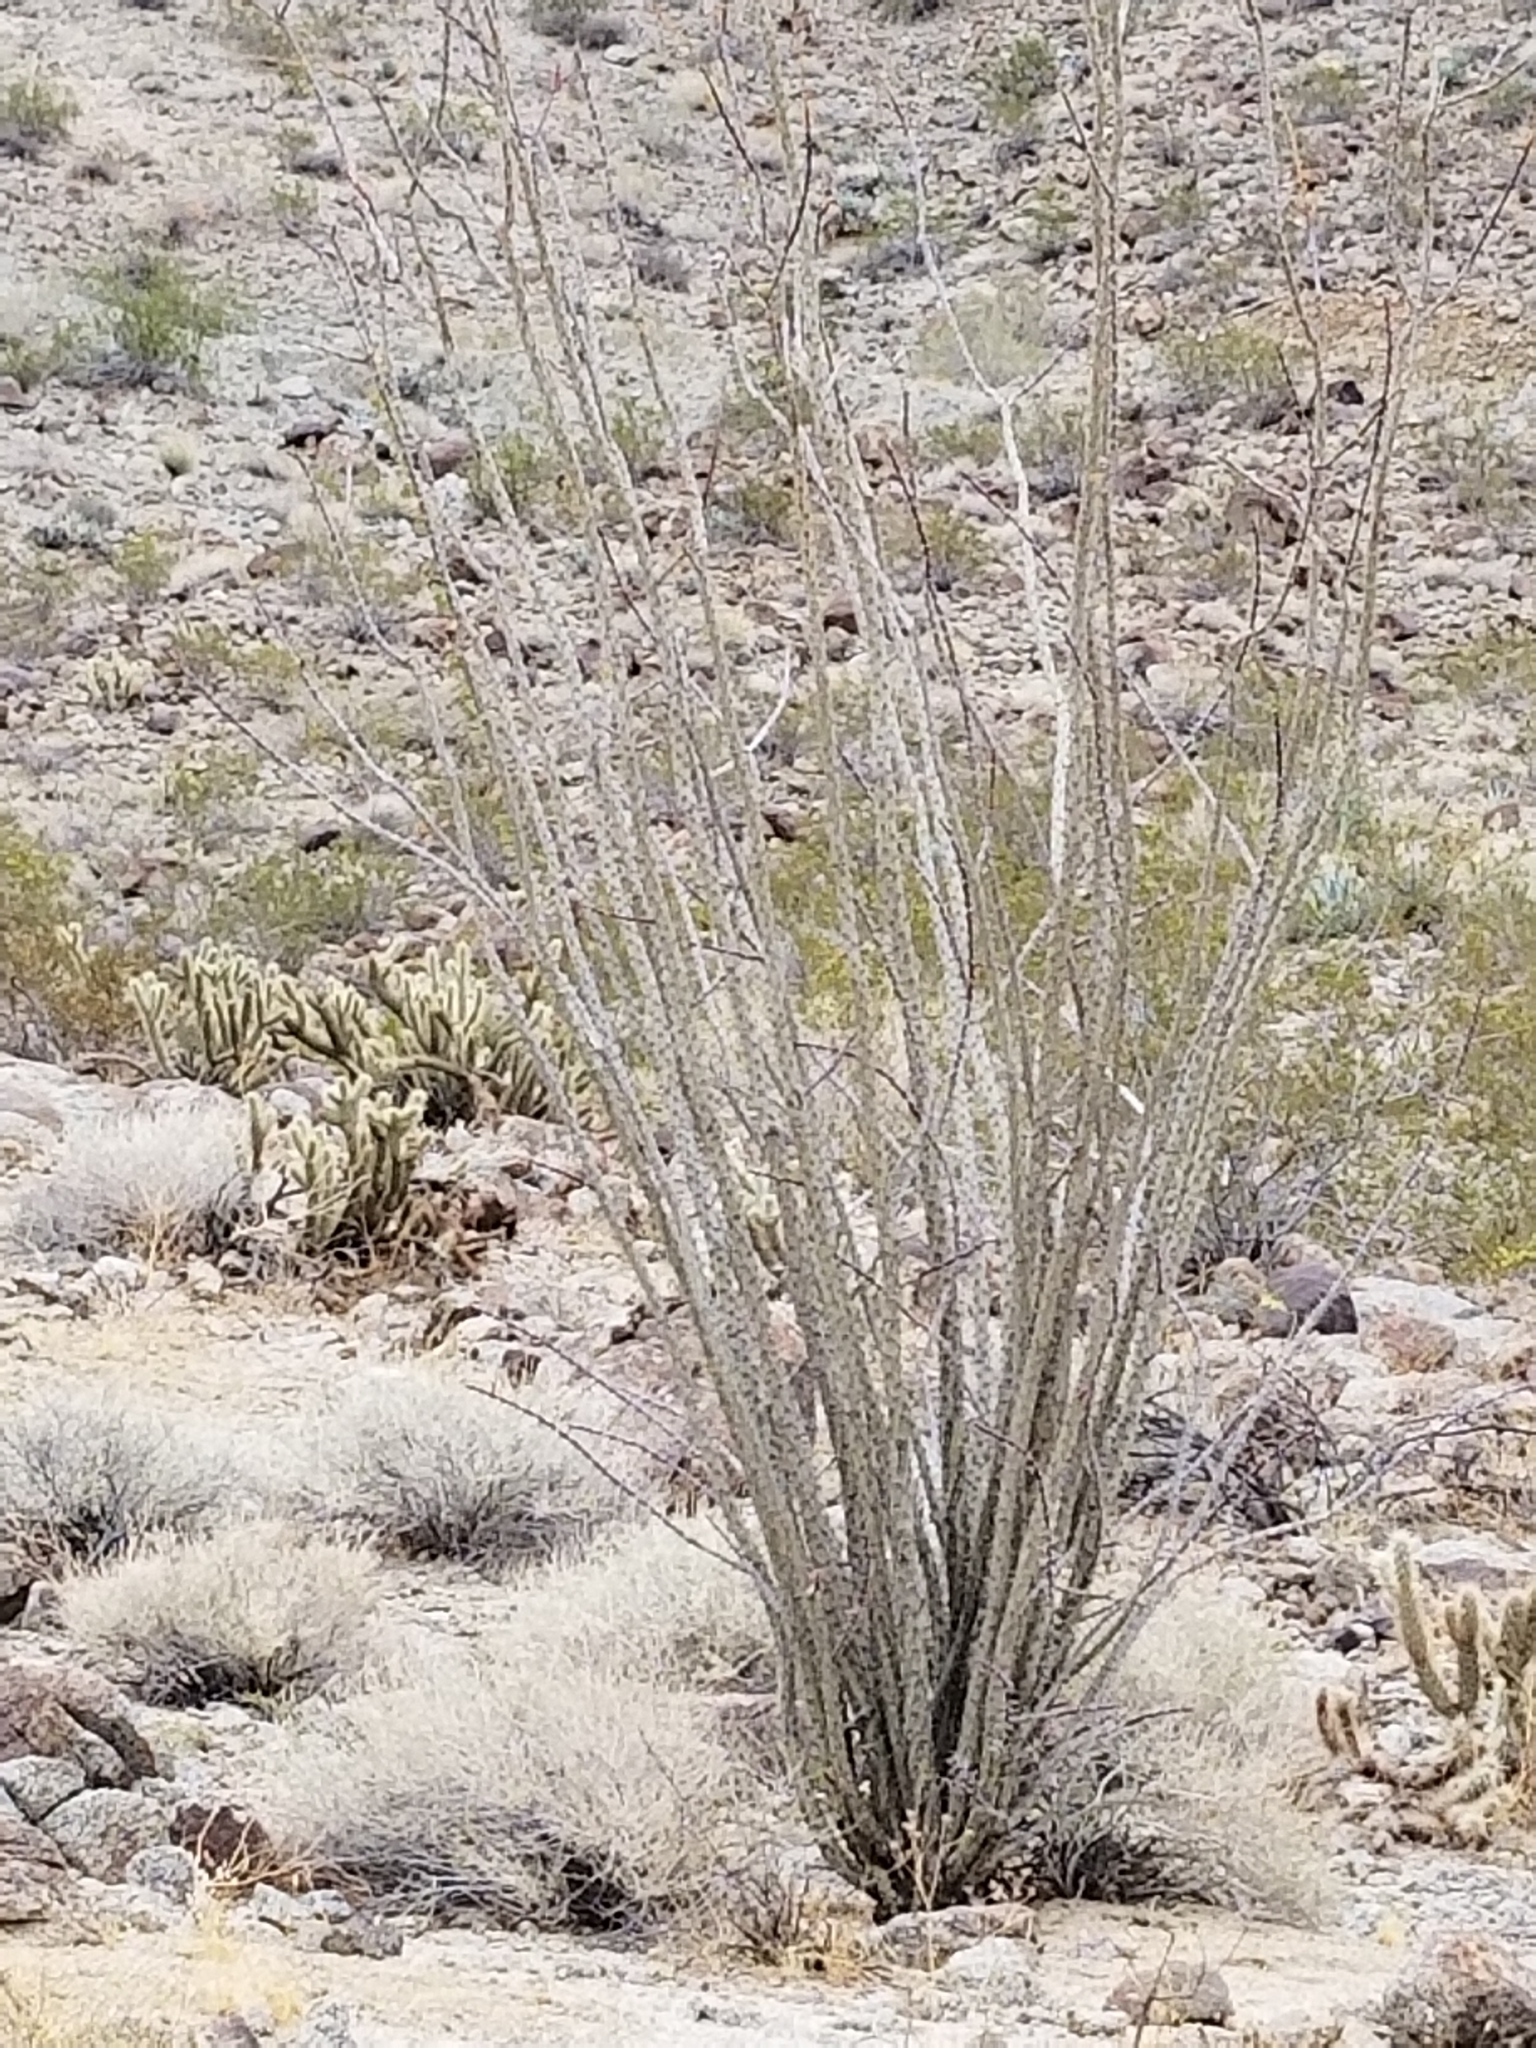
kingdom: Plantae
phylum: Tracheophyta
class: Magnoliopsida
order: Ericales
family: Fouquieriaceae
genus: Fouquieria
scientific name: Fouquieria splendens
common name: Vine-cactus
